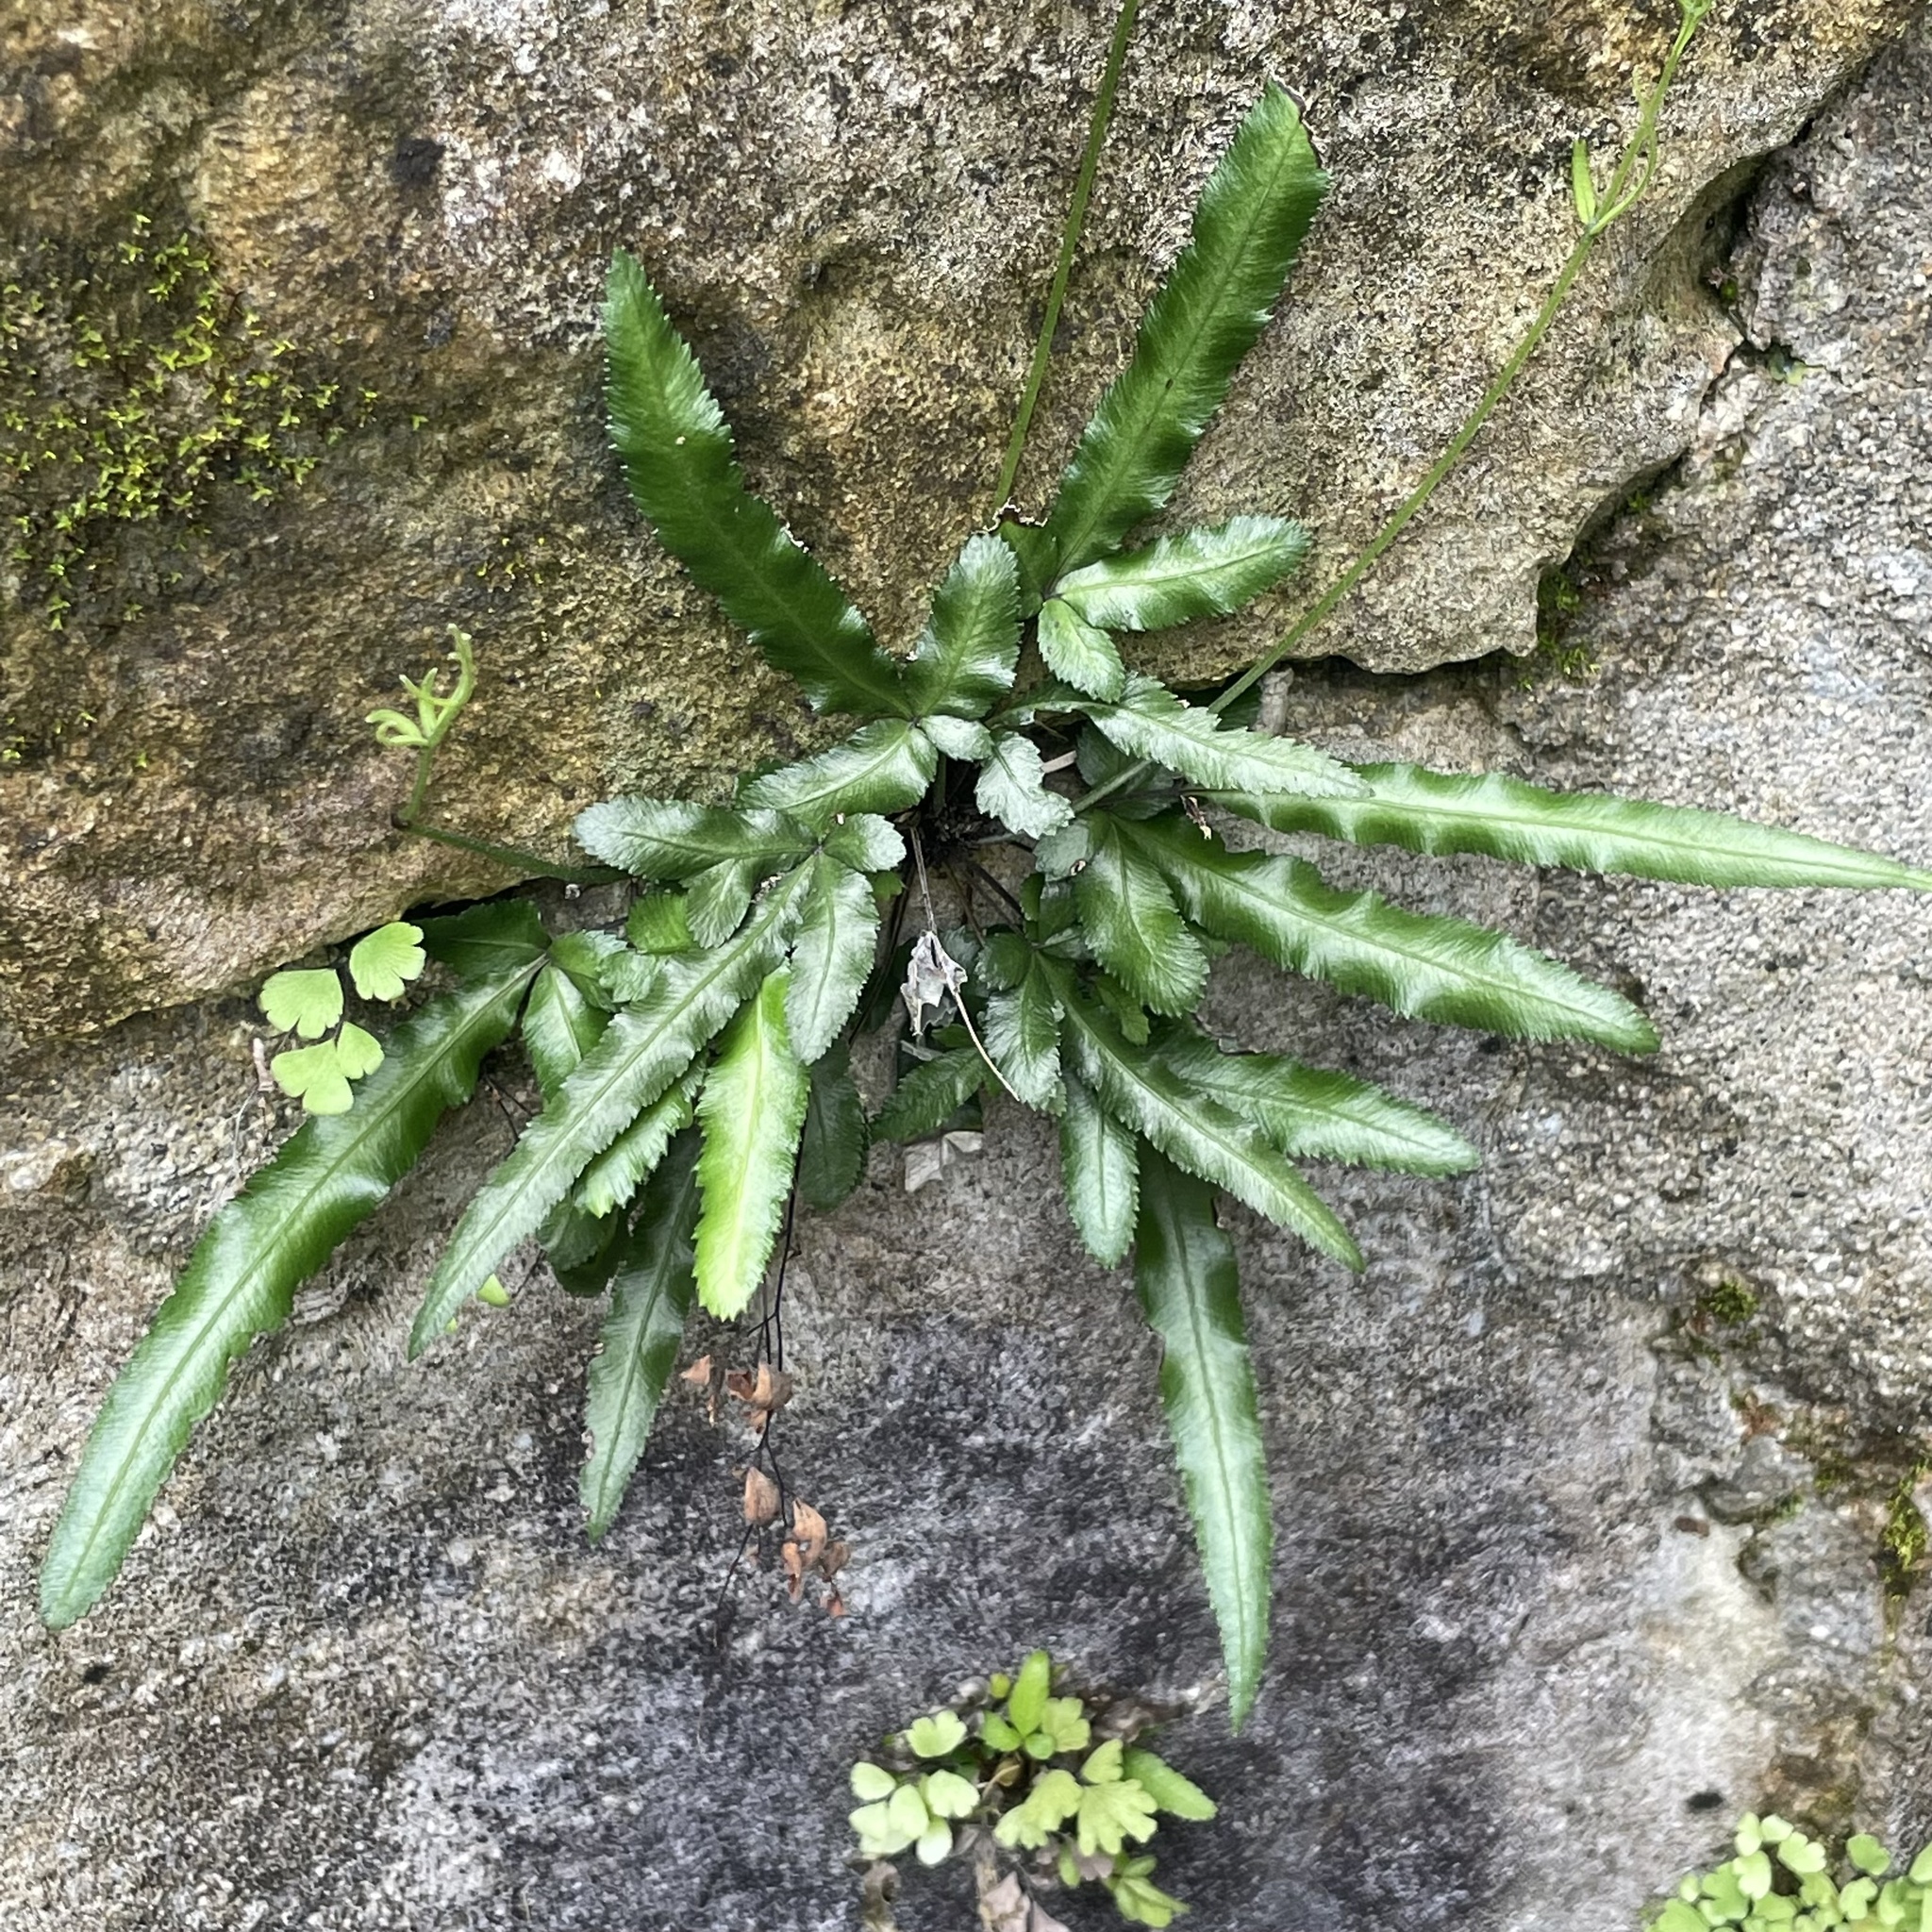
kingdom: Plantae
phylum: Tracheophyta
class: Polypodiopsida
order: Polypodiales
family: Pteridaceae
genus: Pteris
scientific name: Pteris parkeri
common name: Cretan brake
